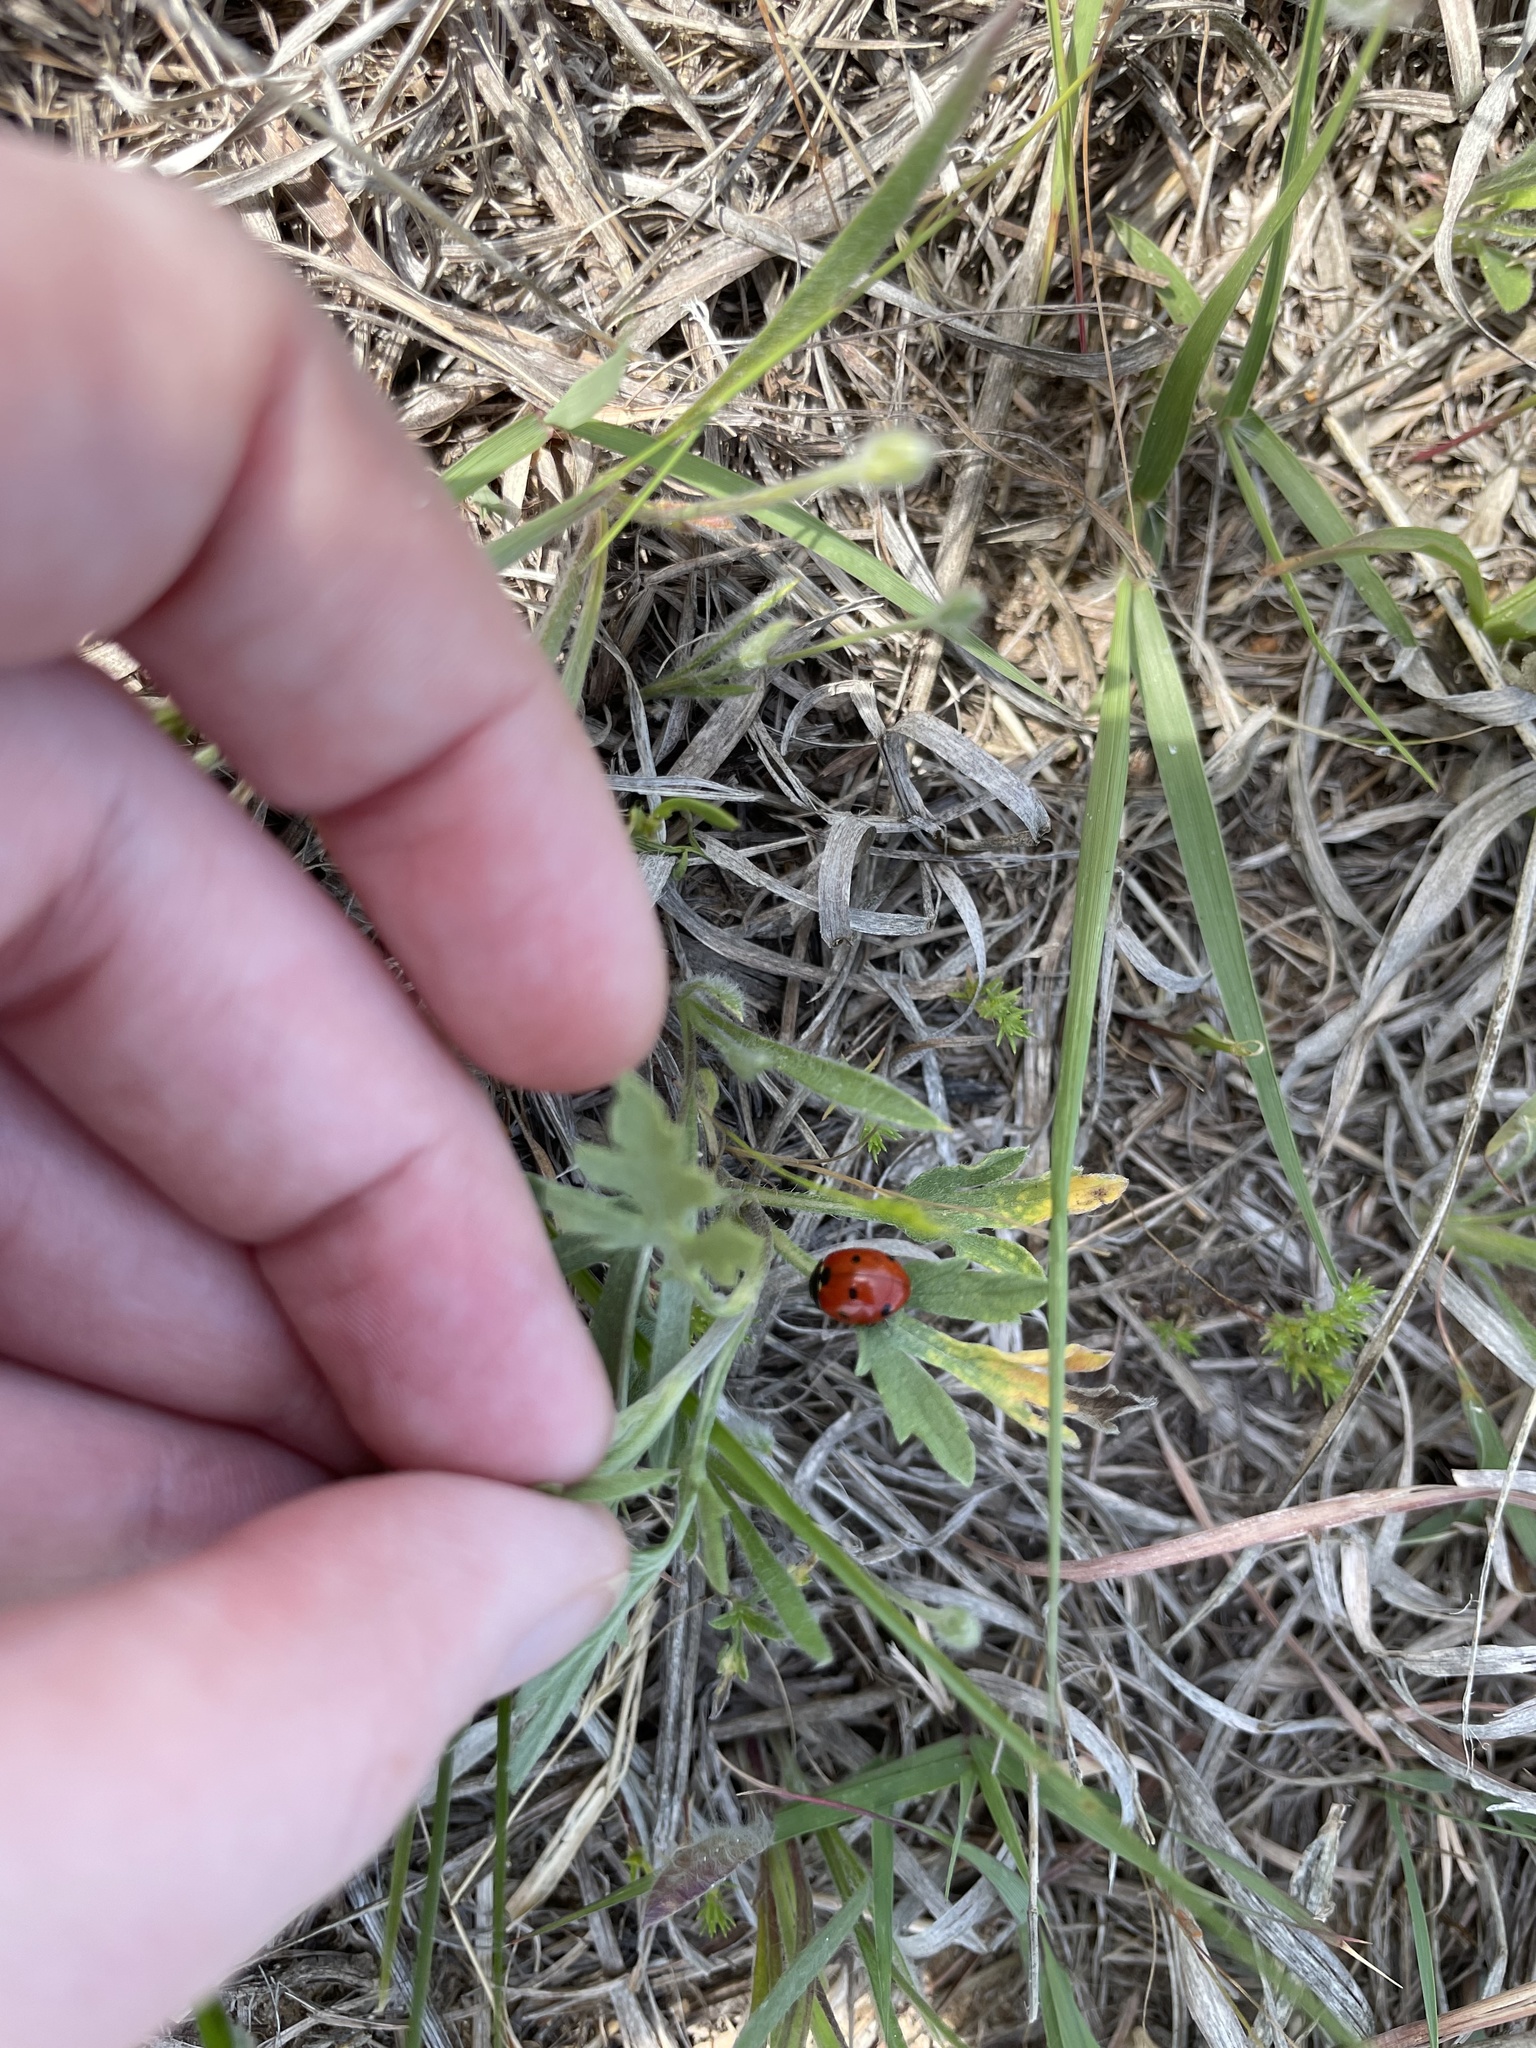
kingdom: Animalia
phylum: Arthropoda
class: Insecta
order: Coleoptera
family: Coccinellidae
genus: Coccinella
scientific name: Coccinella septempunctata
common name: Sevenspotted lady beetle
